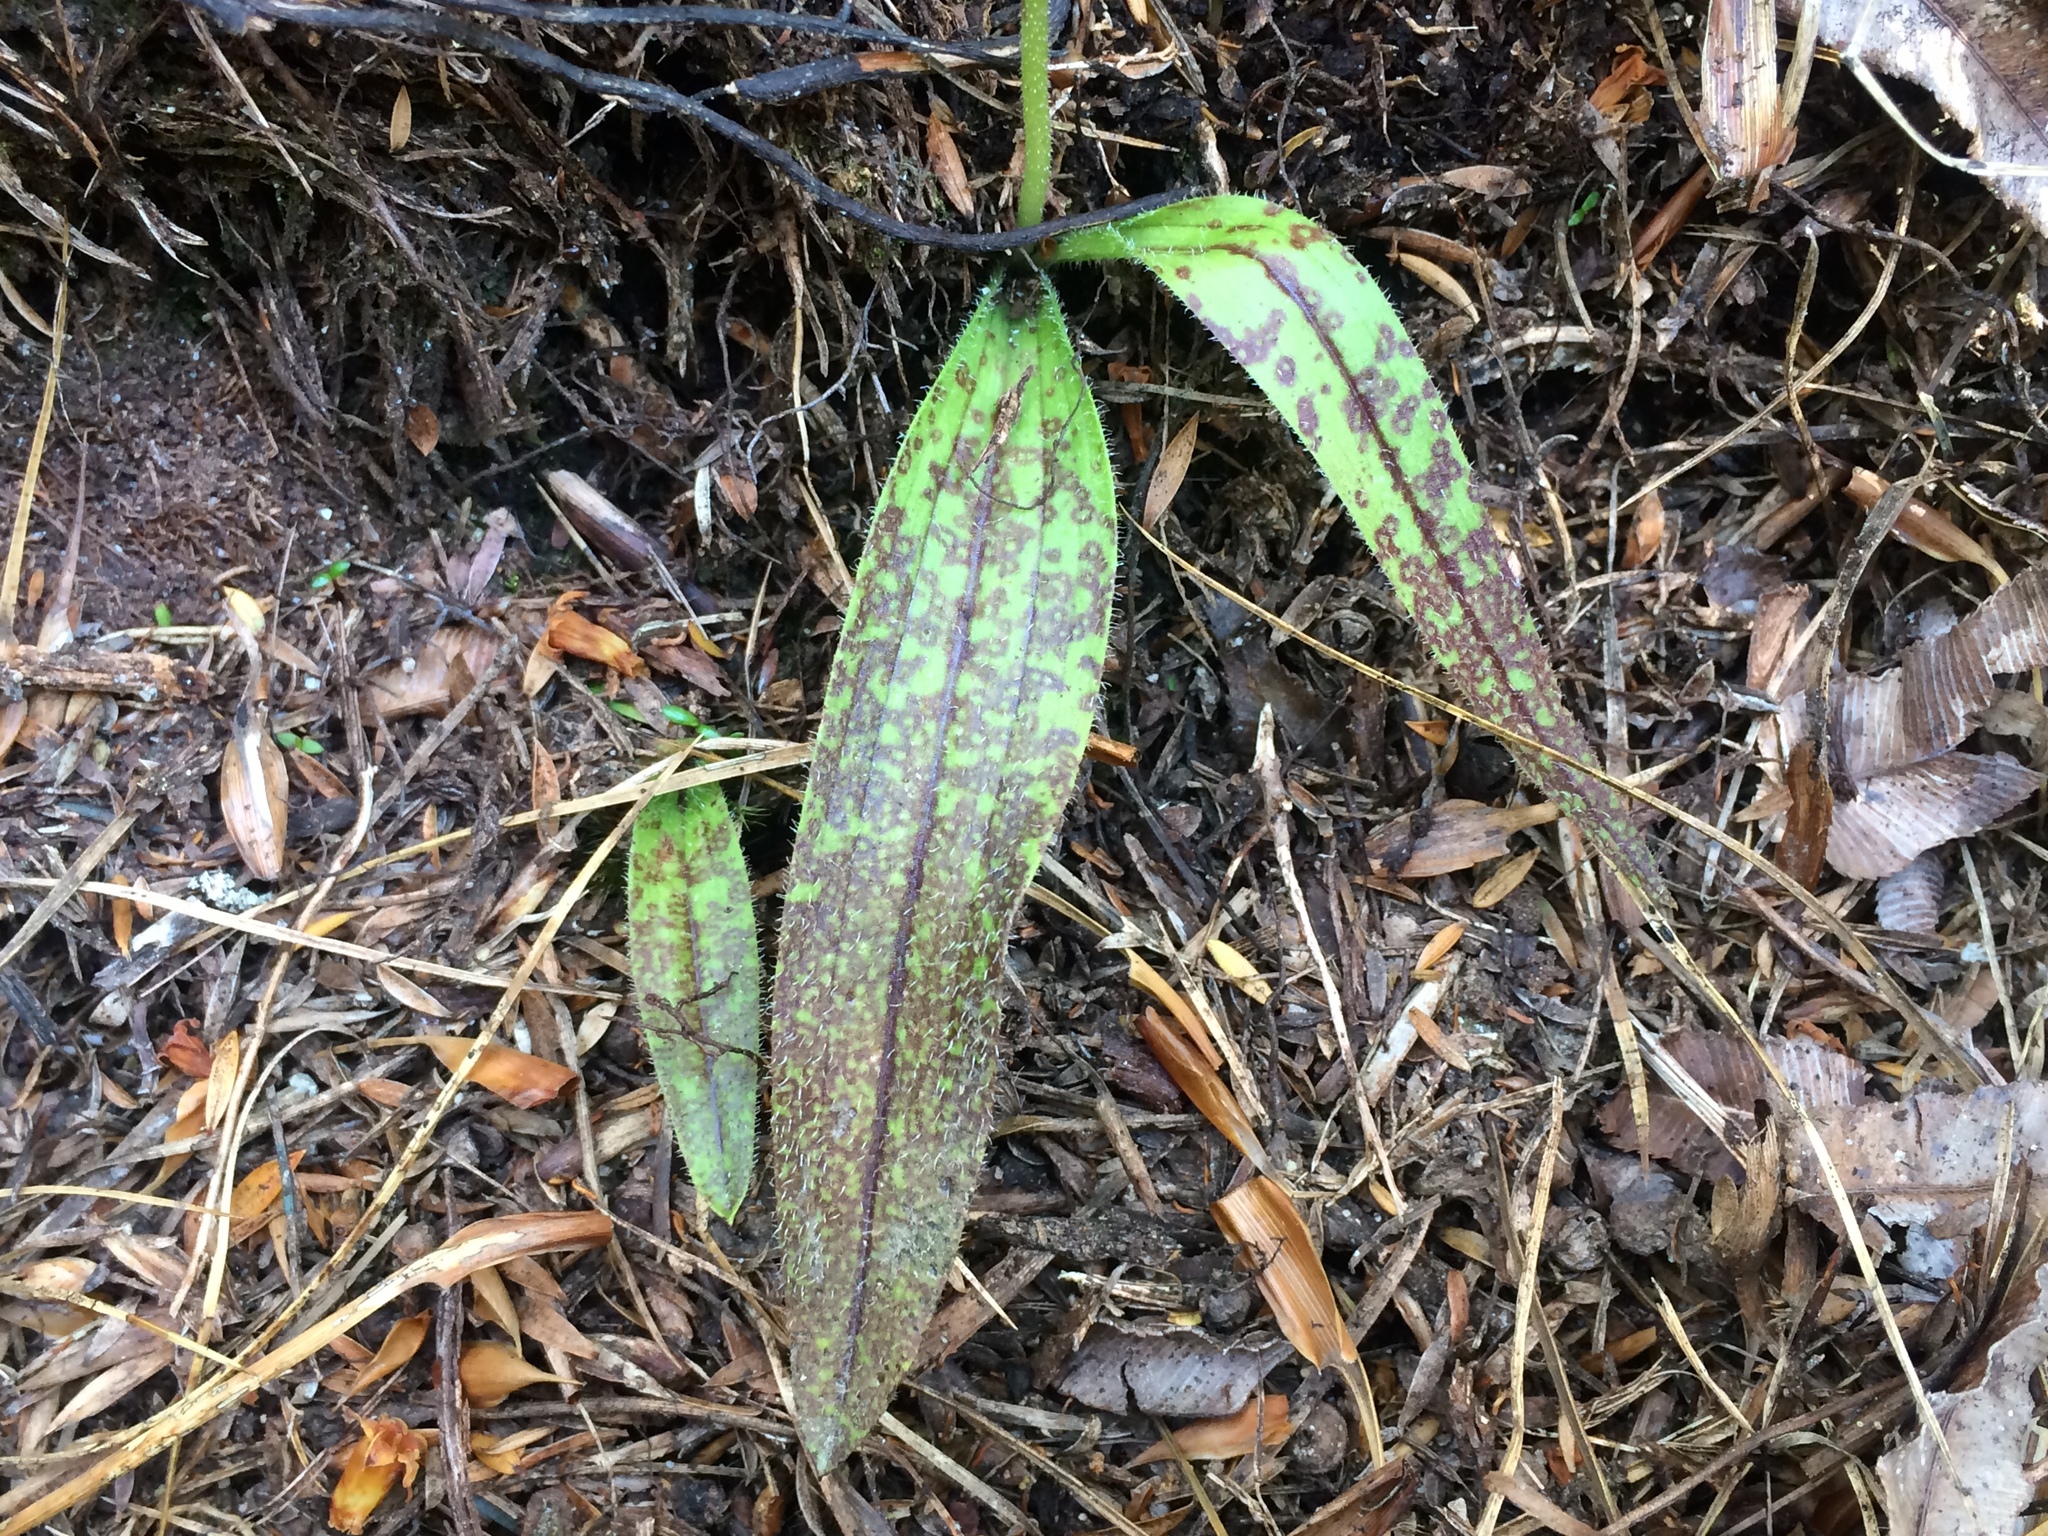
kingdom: Plantae
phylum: Tracheophyta
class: Liliopsida
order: Asparagales
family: Orchidaceae
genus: Aporostylis
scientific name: Aporostylis bifolia
